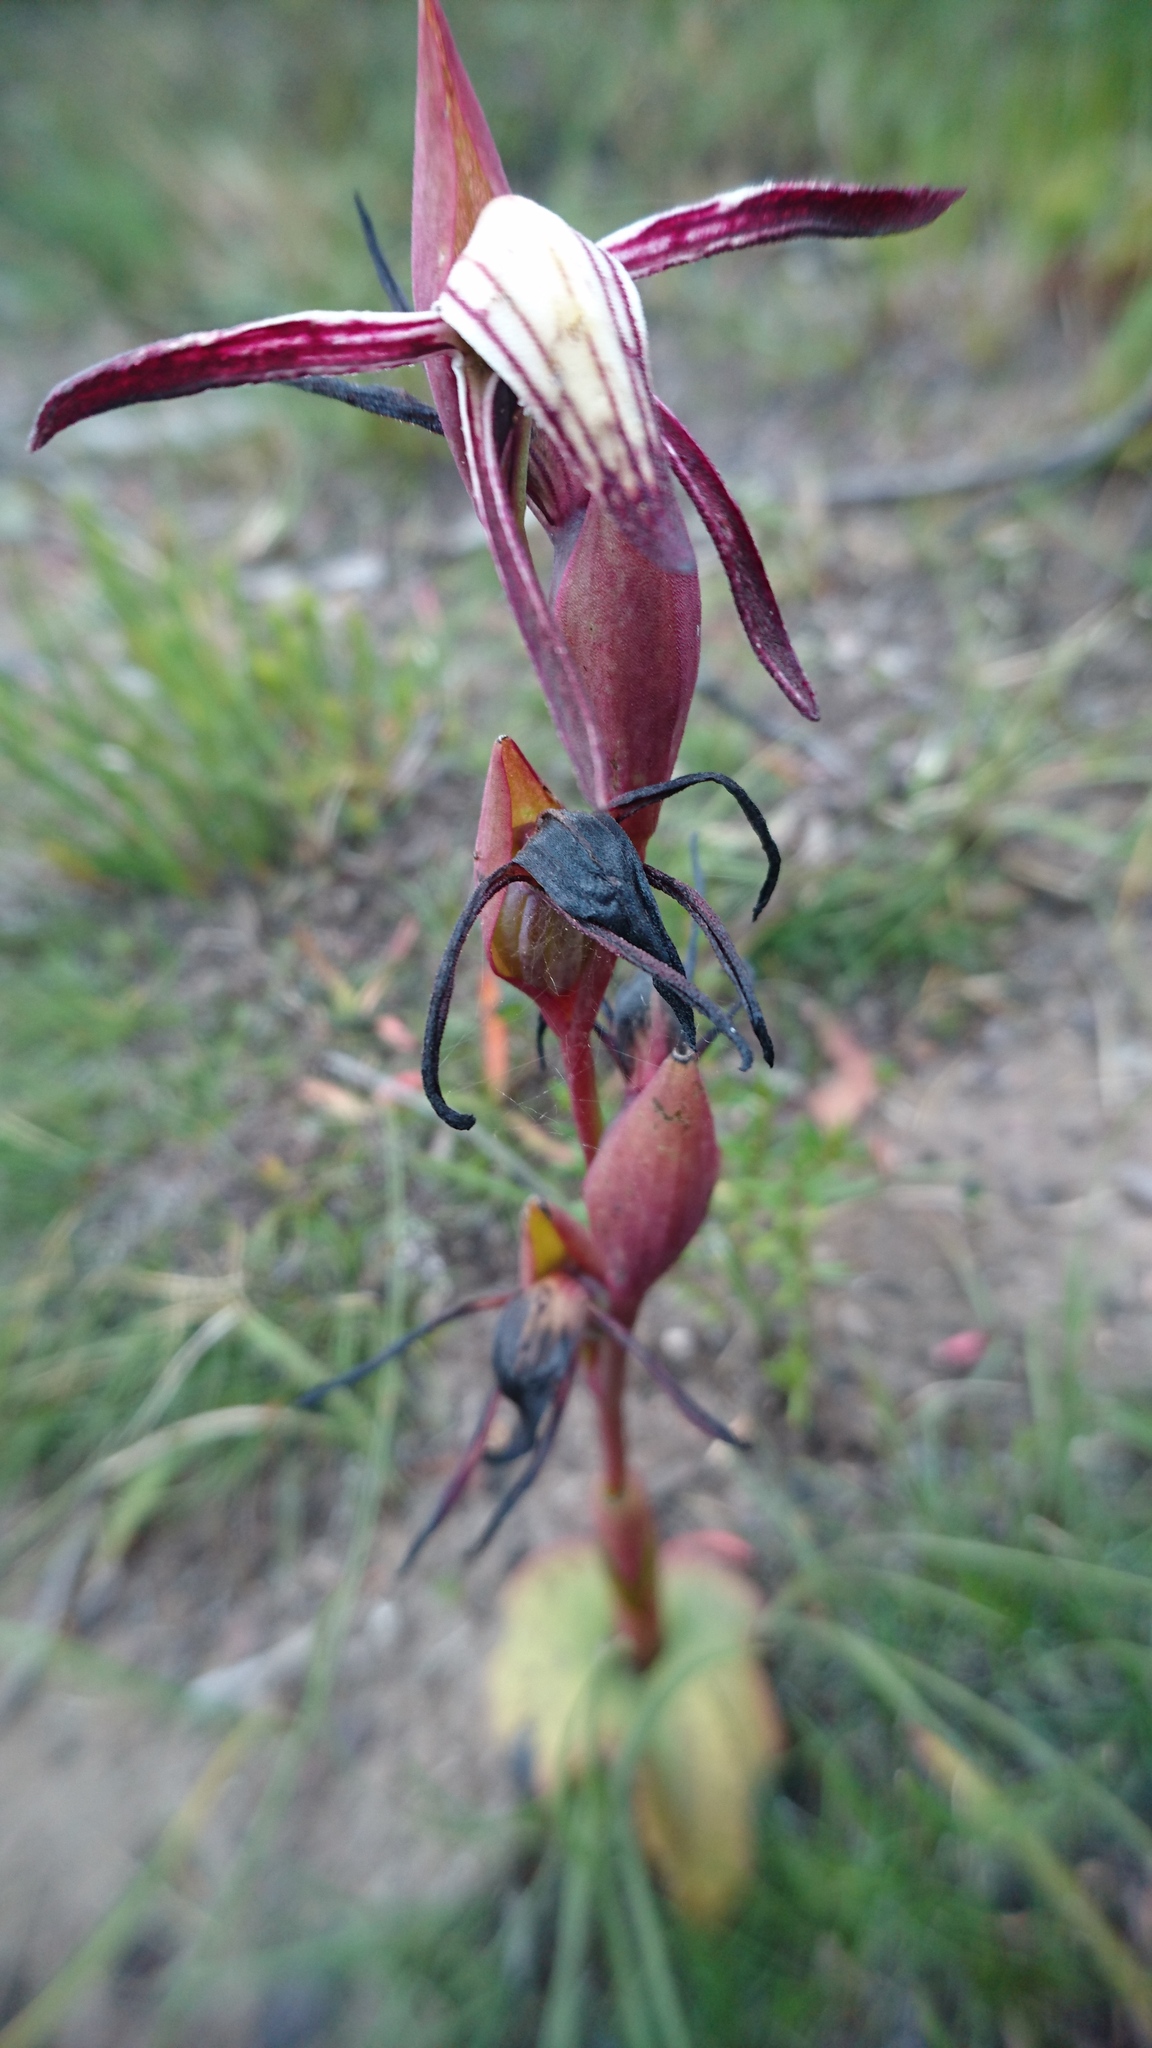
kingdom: Plantae
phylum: Tracheophyta
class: Liliopsida
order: Asparagales
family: Orchidaceae
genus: Pyrorchis
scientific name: Pyrorchis nigricans
